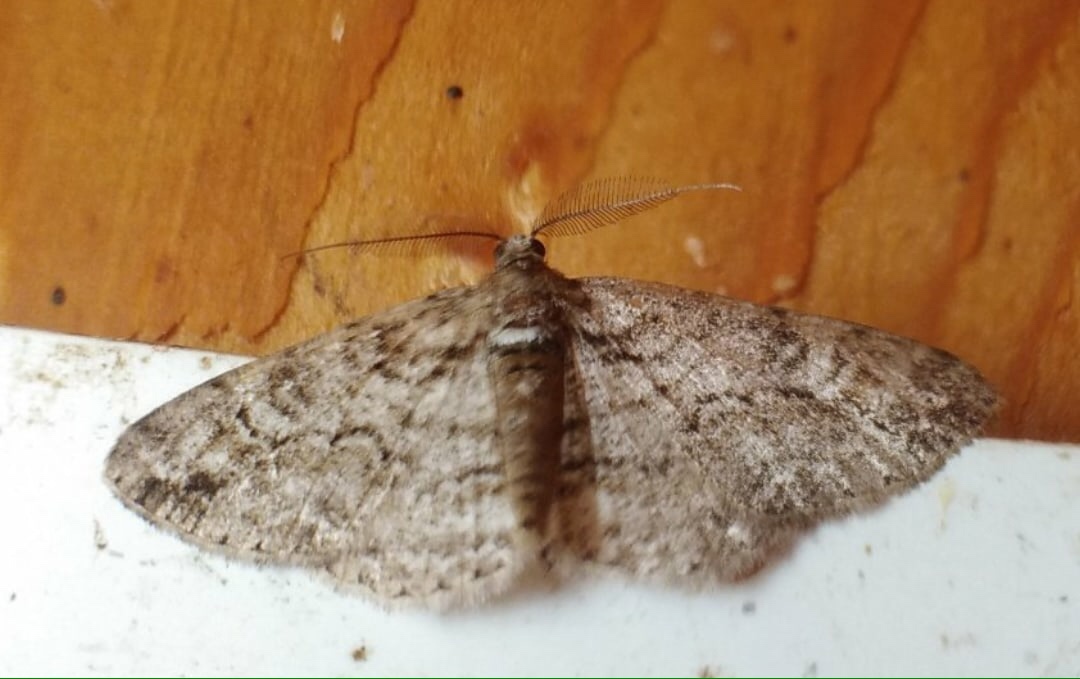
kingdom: Animalia
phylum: Arthropoda
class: Insecta
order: Lepidoptera
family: Geometridae
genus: Cleora
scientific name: Cleora cinctaria
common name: Ringed carpet
